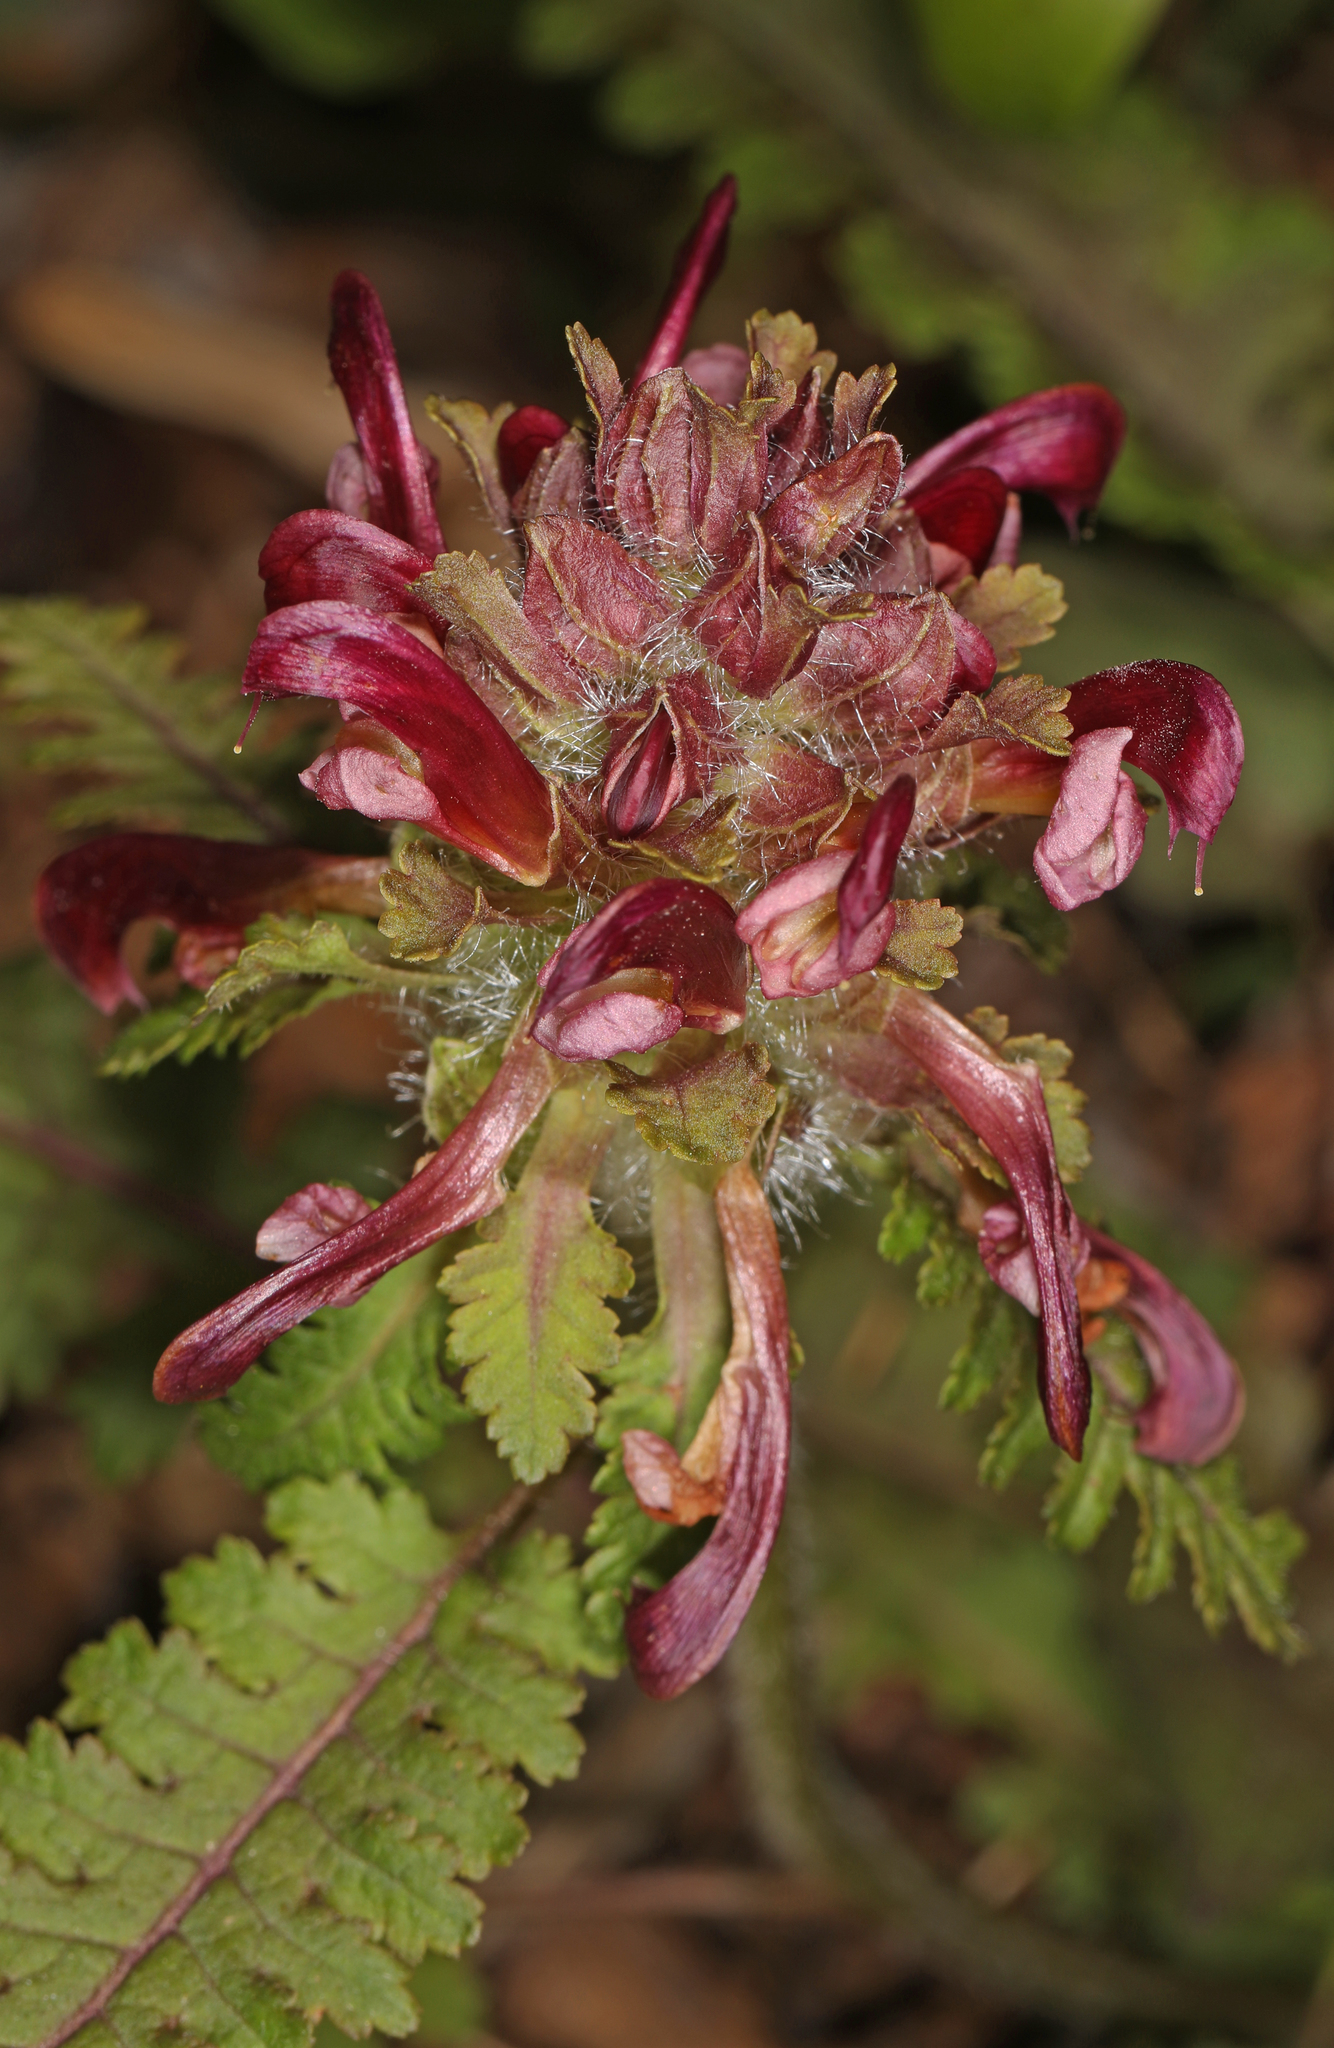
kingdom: Plantae
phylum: Tracheophyta
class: Magnoliopsida
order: Lamiales
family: Orobanchaceae
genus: Pedicularis
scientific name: Pedicularis canadensis
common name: Early lousewort
